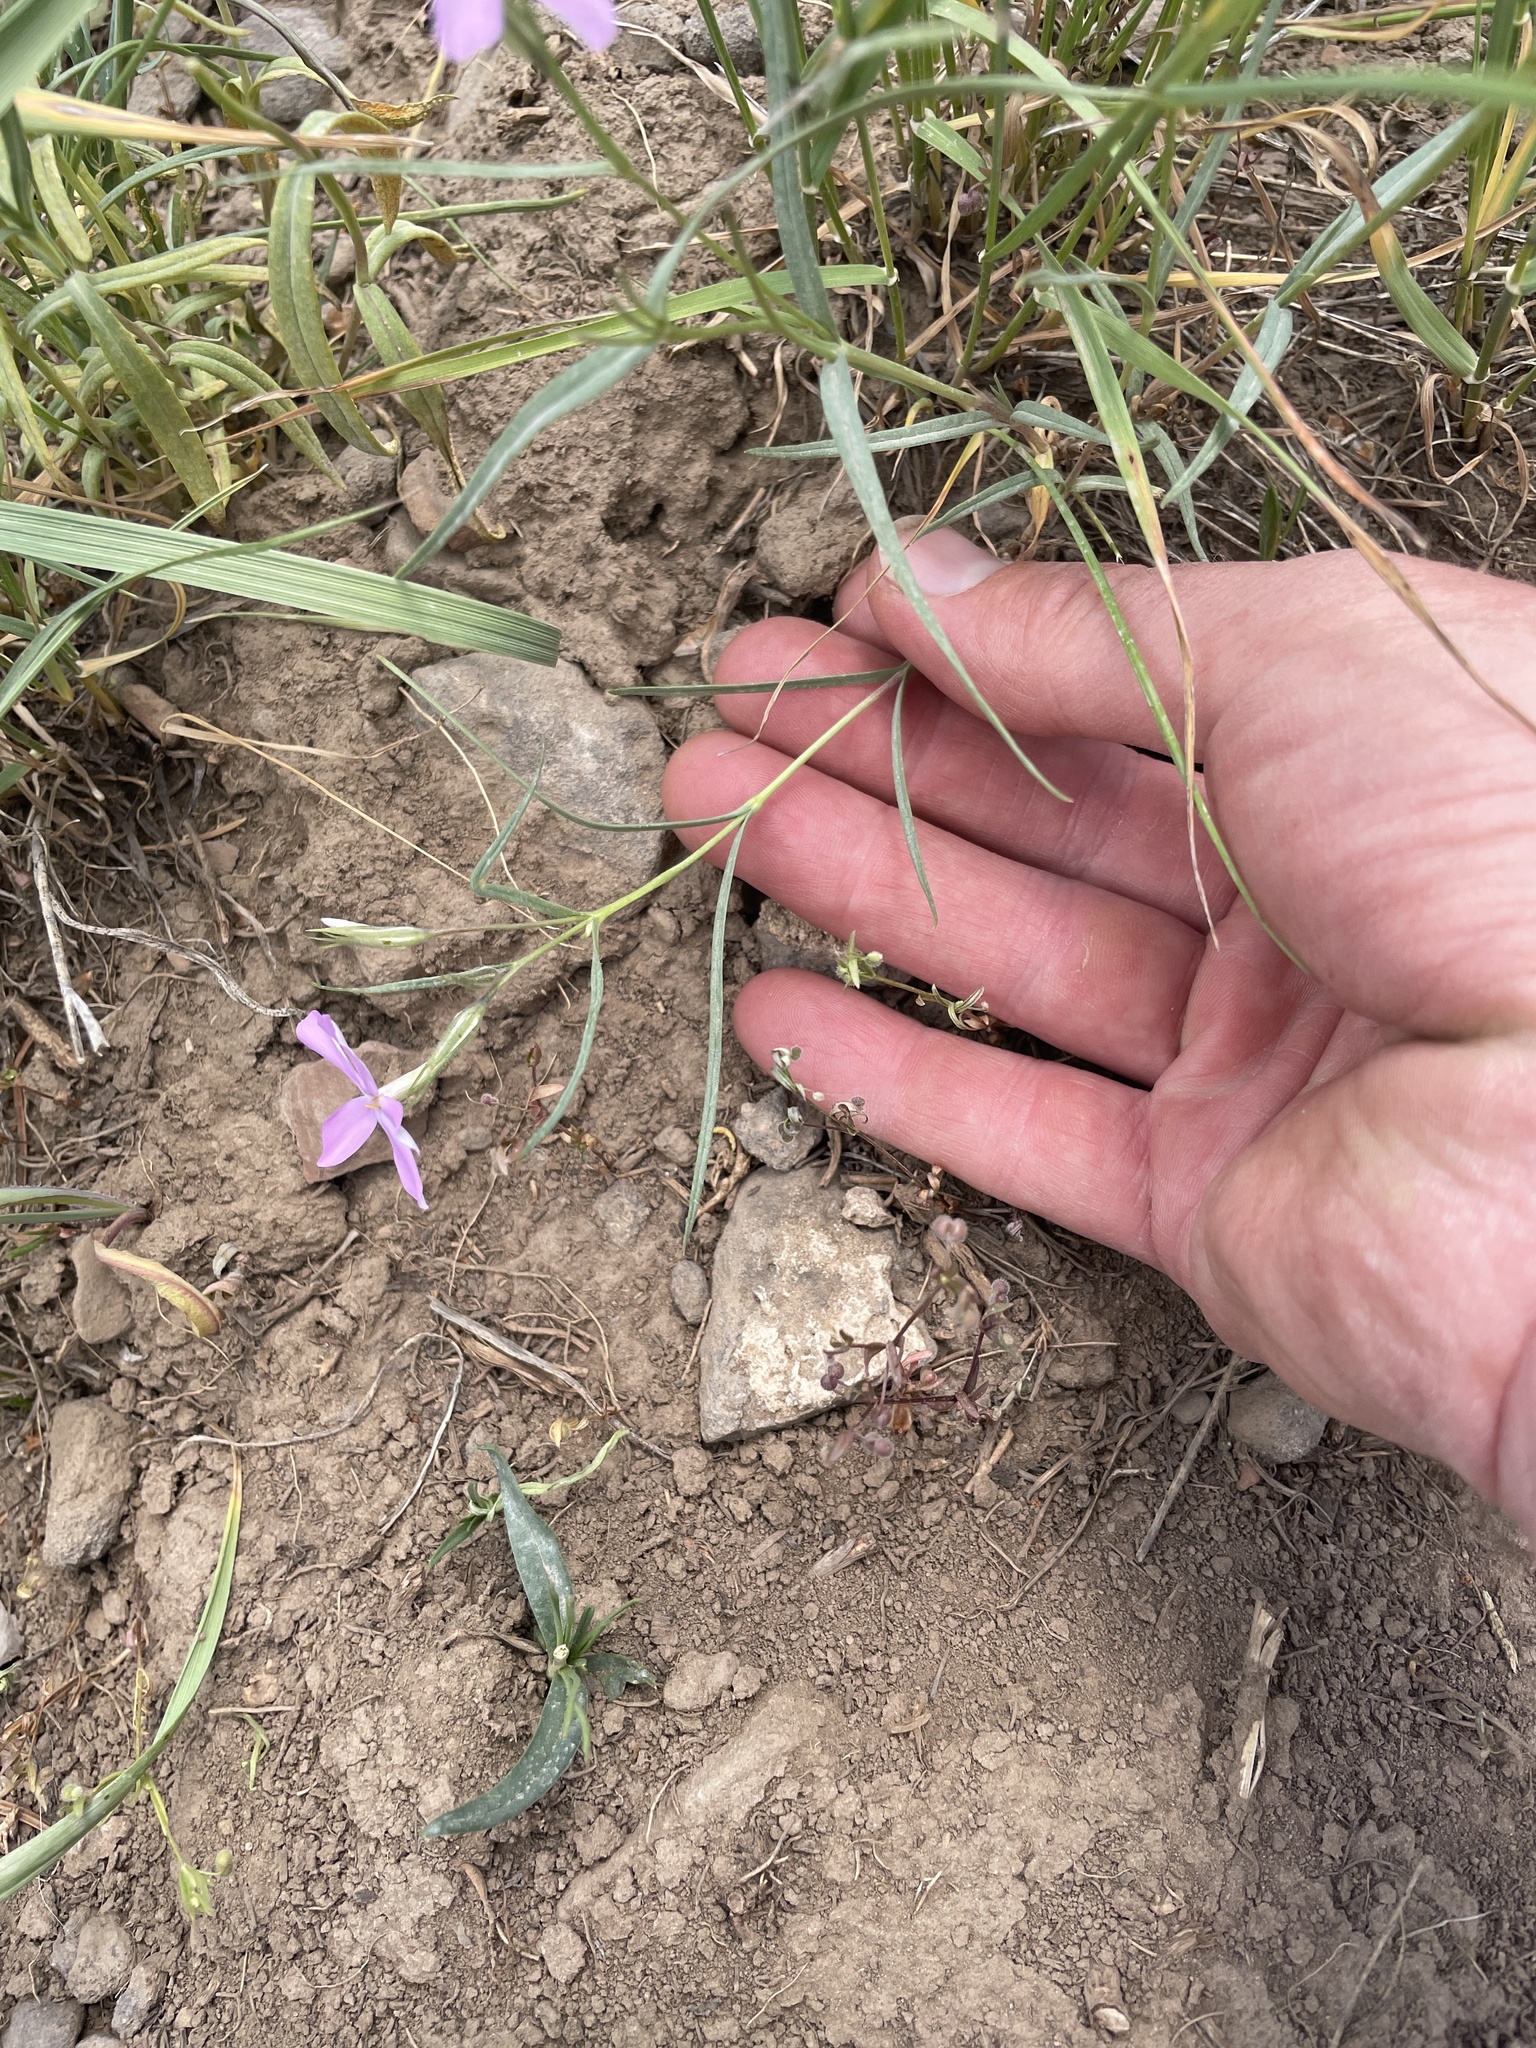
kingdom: Plantae
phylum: Tracheophyta
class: Magnoliopsida
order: Ericales
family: Polemoniaceae
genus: Phlox
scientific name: Phlox longifolia
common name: Longleaf phlox
